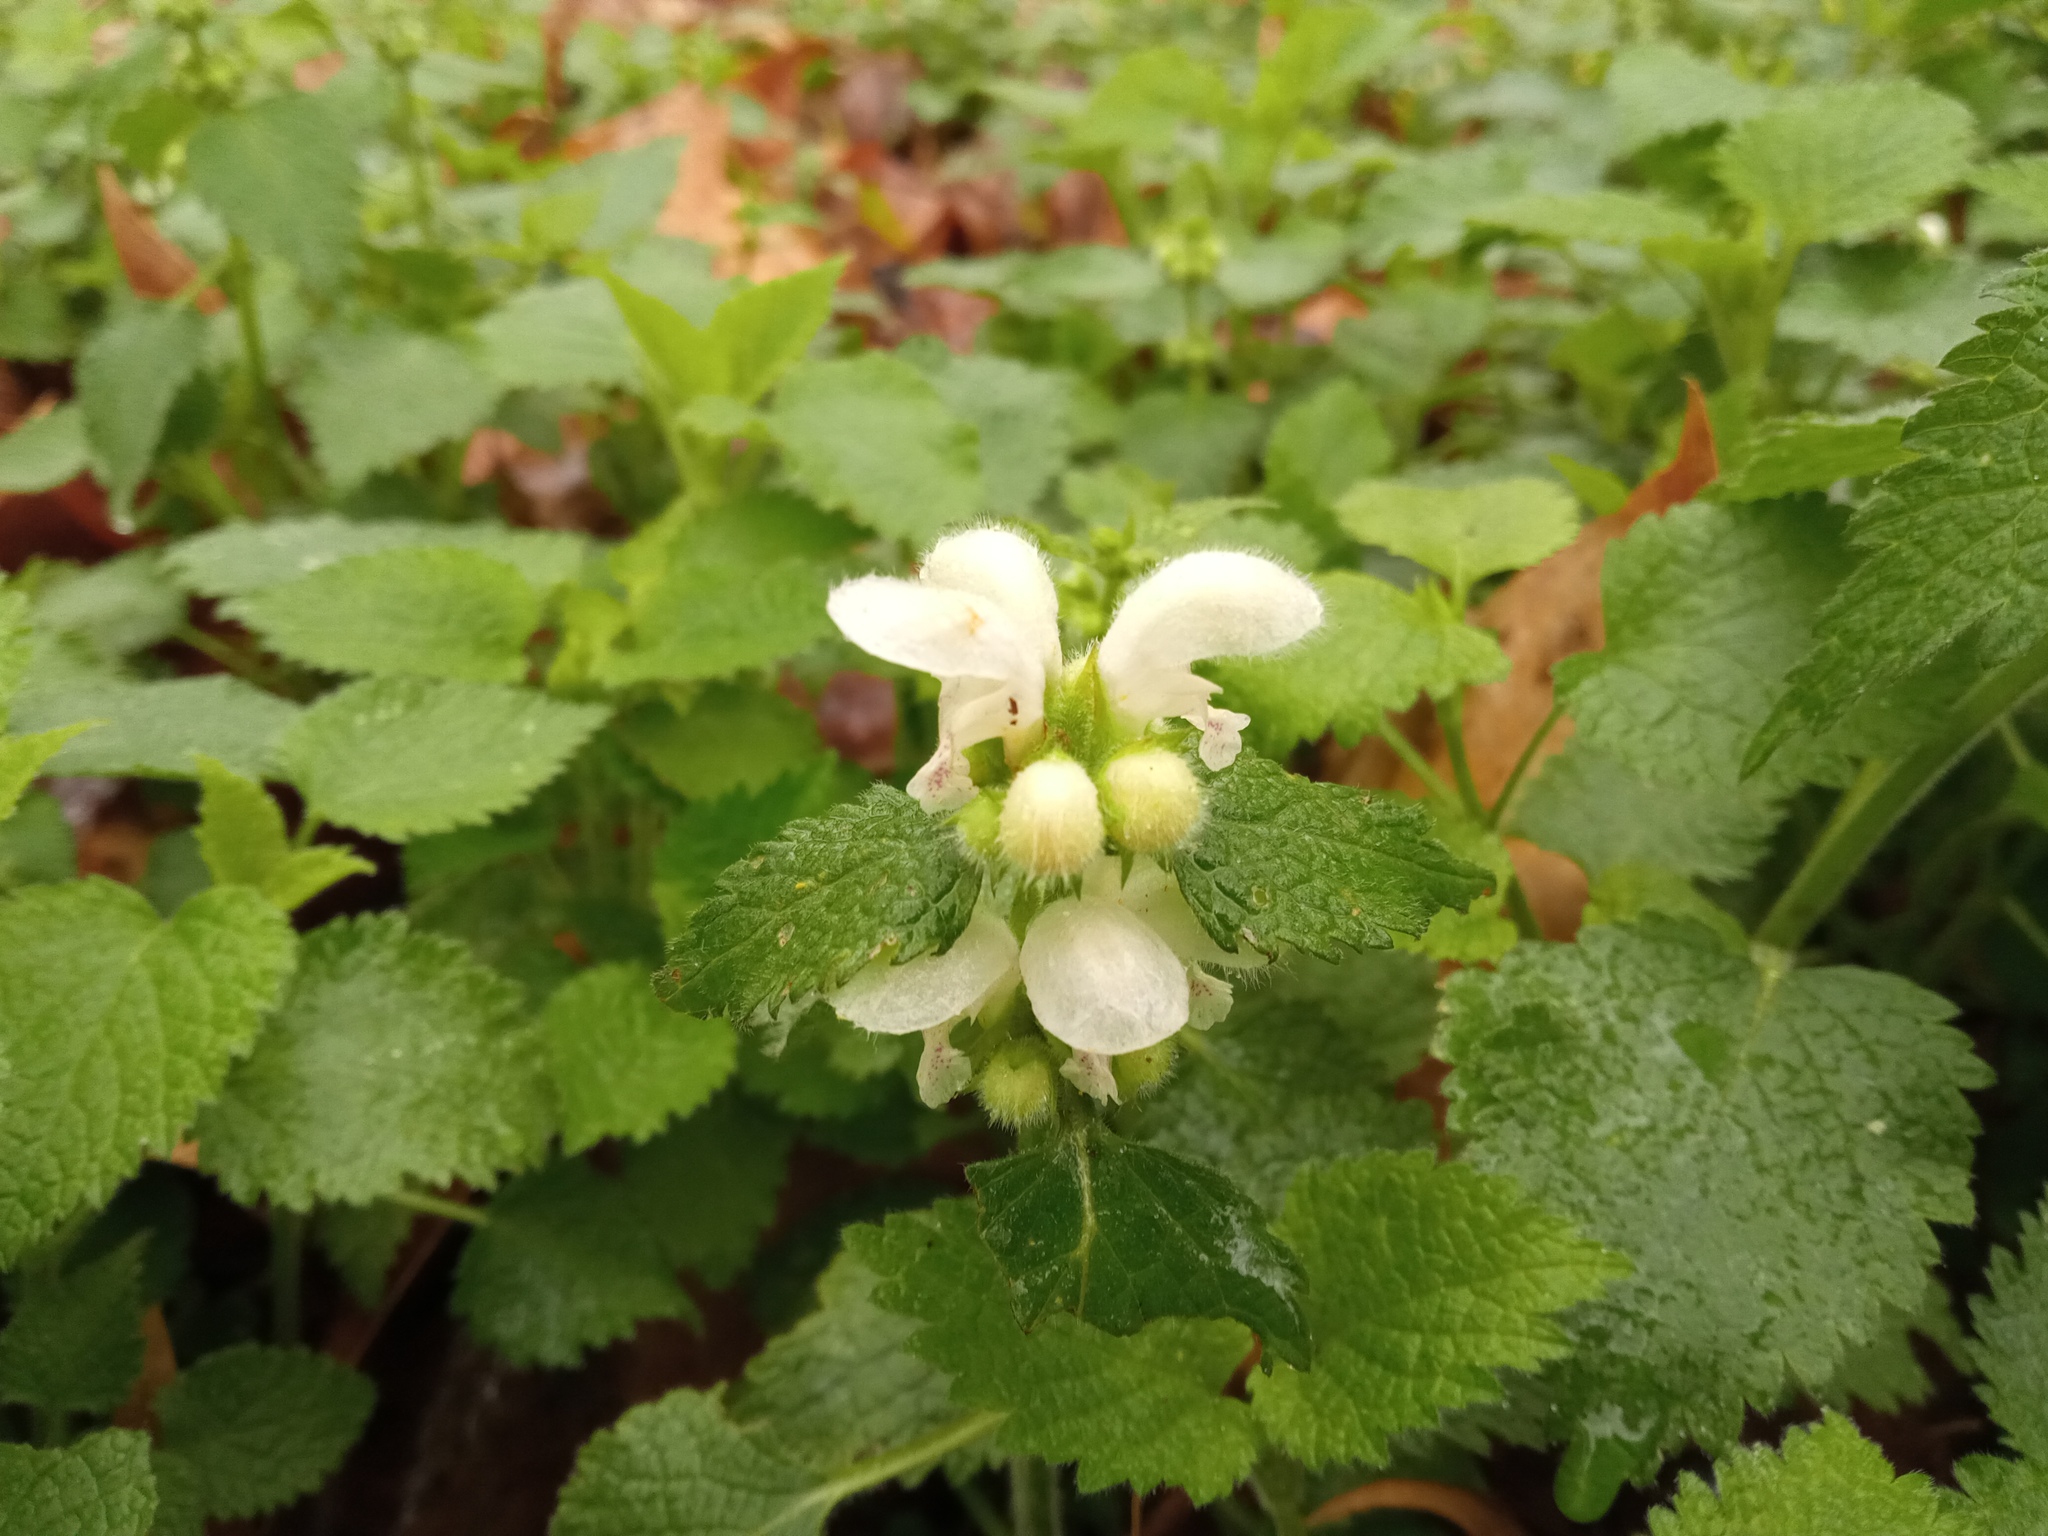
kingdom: Plantae
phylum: Tracheophyta
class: Magnoliopsida
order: Lamiales
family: Lamiaceae
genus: Lamium
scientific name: Lamium flexuosum
